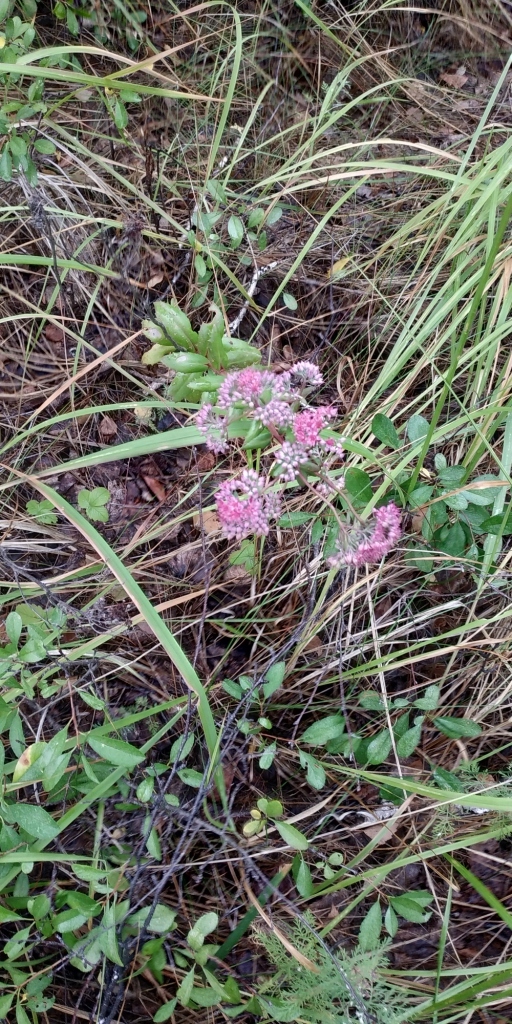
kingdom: Plantae
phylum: Tracheophyta
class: Magnoliopsida
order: Saxifragales
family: Crassulaceae
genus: Hylotelephium
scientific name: Hylotelephium telephium
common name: Live-forever
